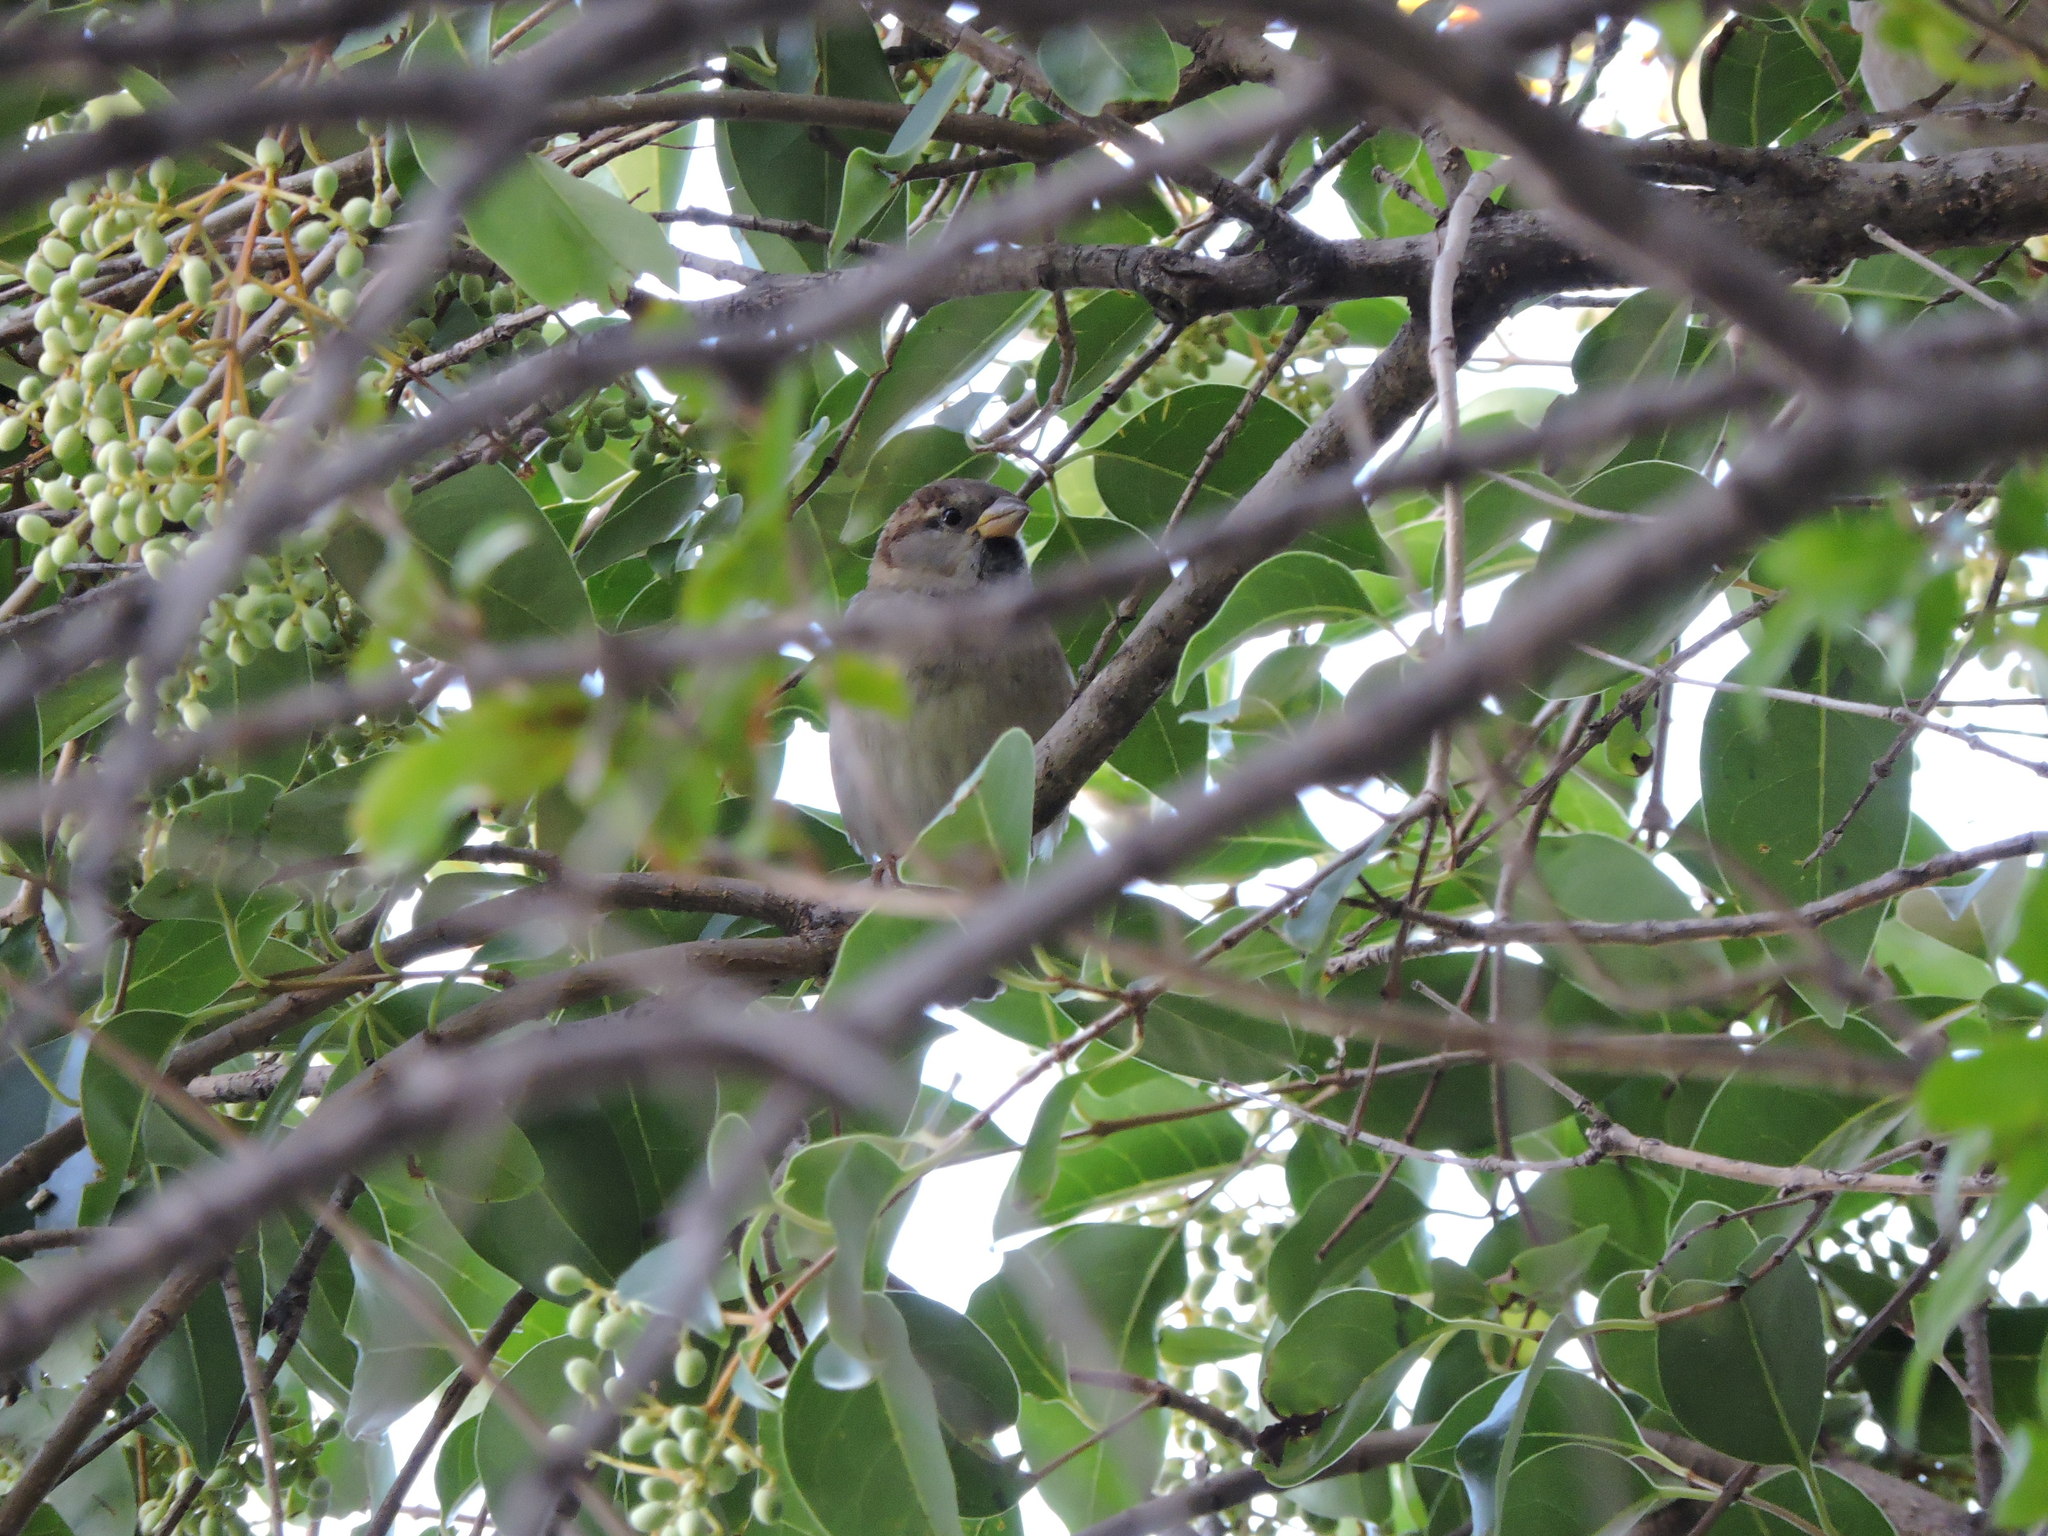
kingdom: Animalia
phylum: Chordata
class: Aves
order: Passeriformes
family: Passeridae
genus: Passer
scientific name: Passer domesticus
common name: House sparrow
